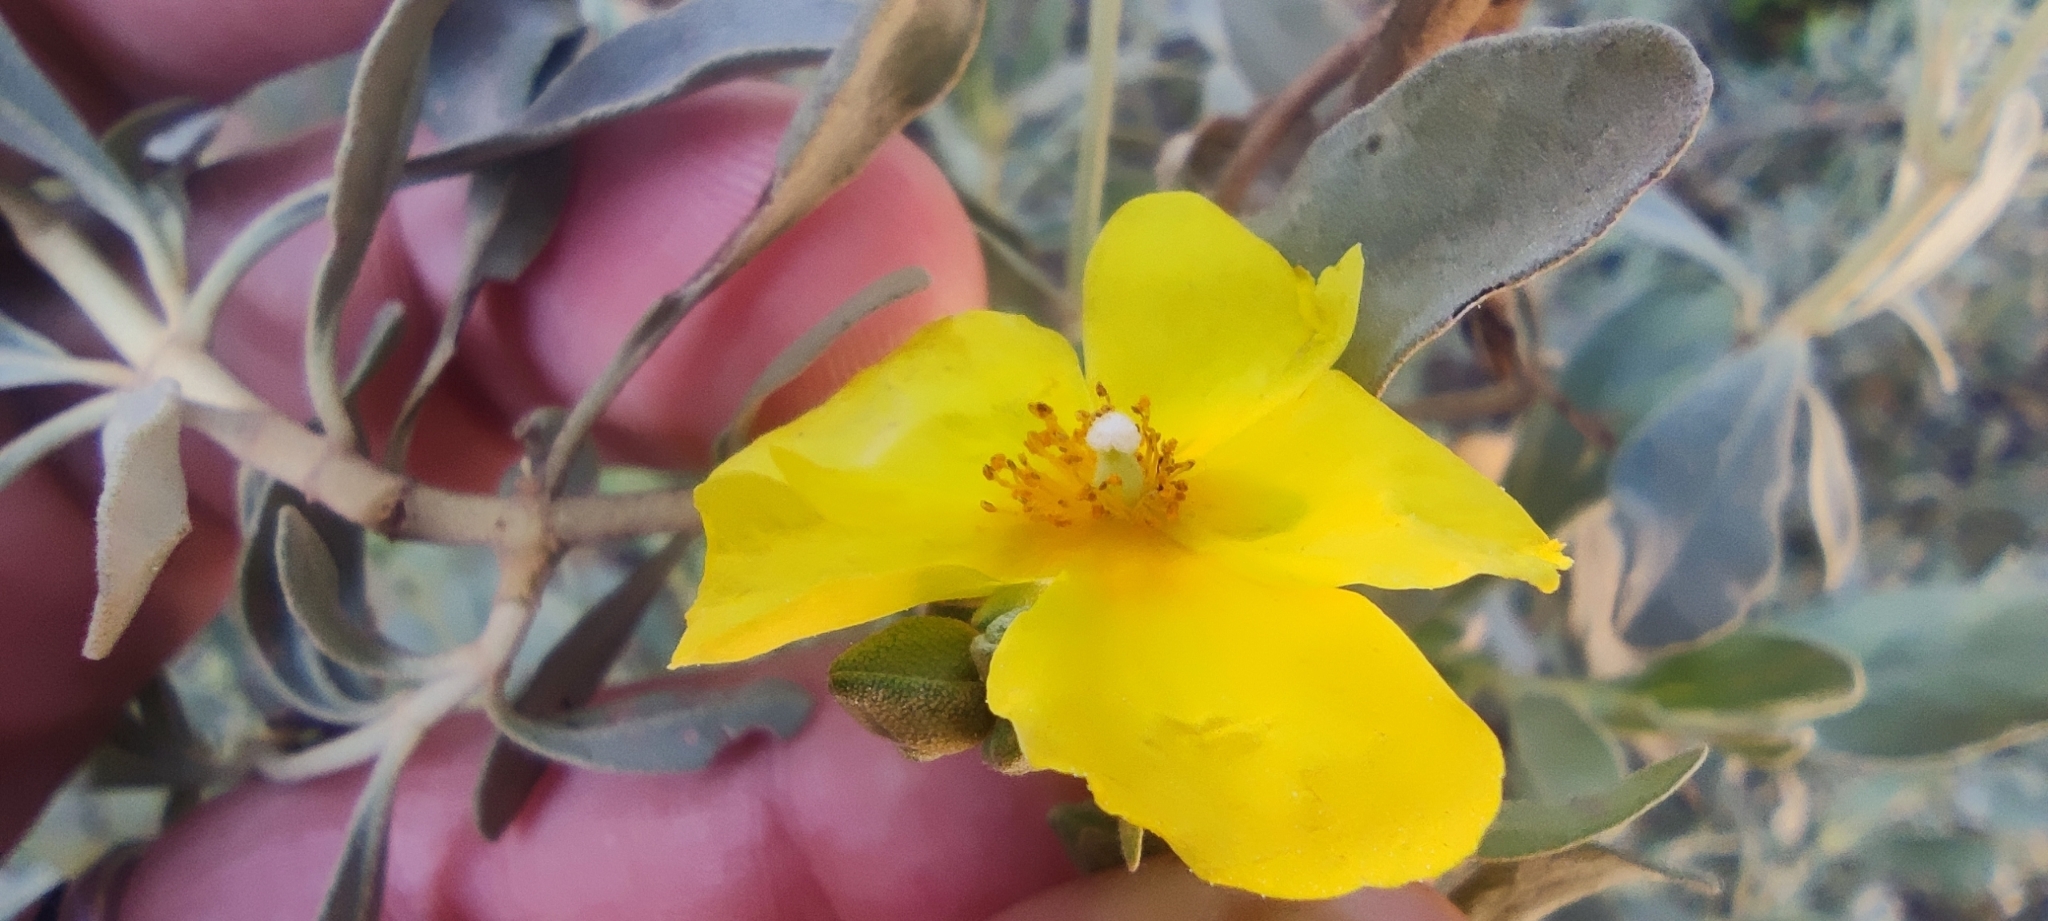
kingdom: Plantae
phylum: Tracheophyta
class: Magnoliopsida
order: Malvales
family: Cistaceae
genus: Halimium
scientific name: Halimium halimifolium
